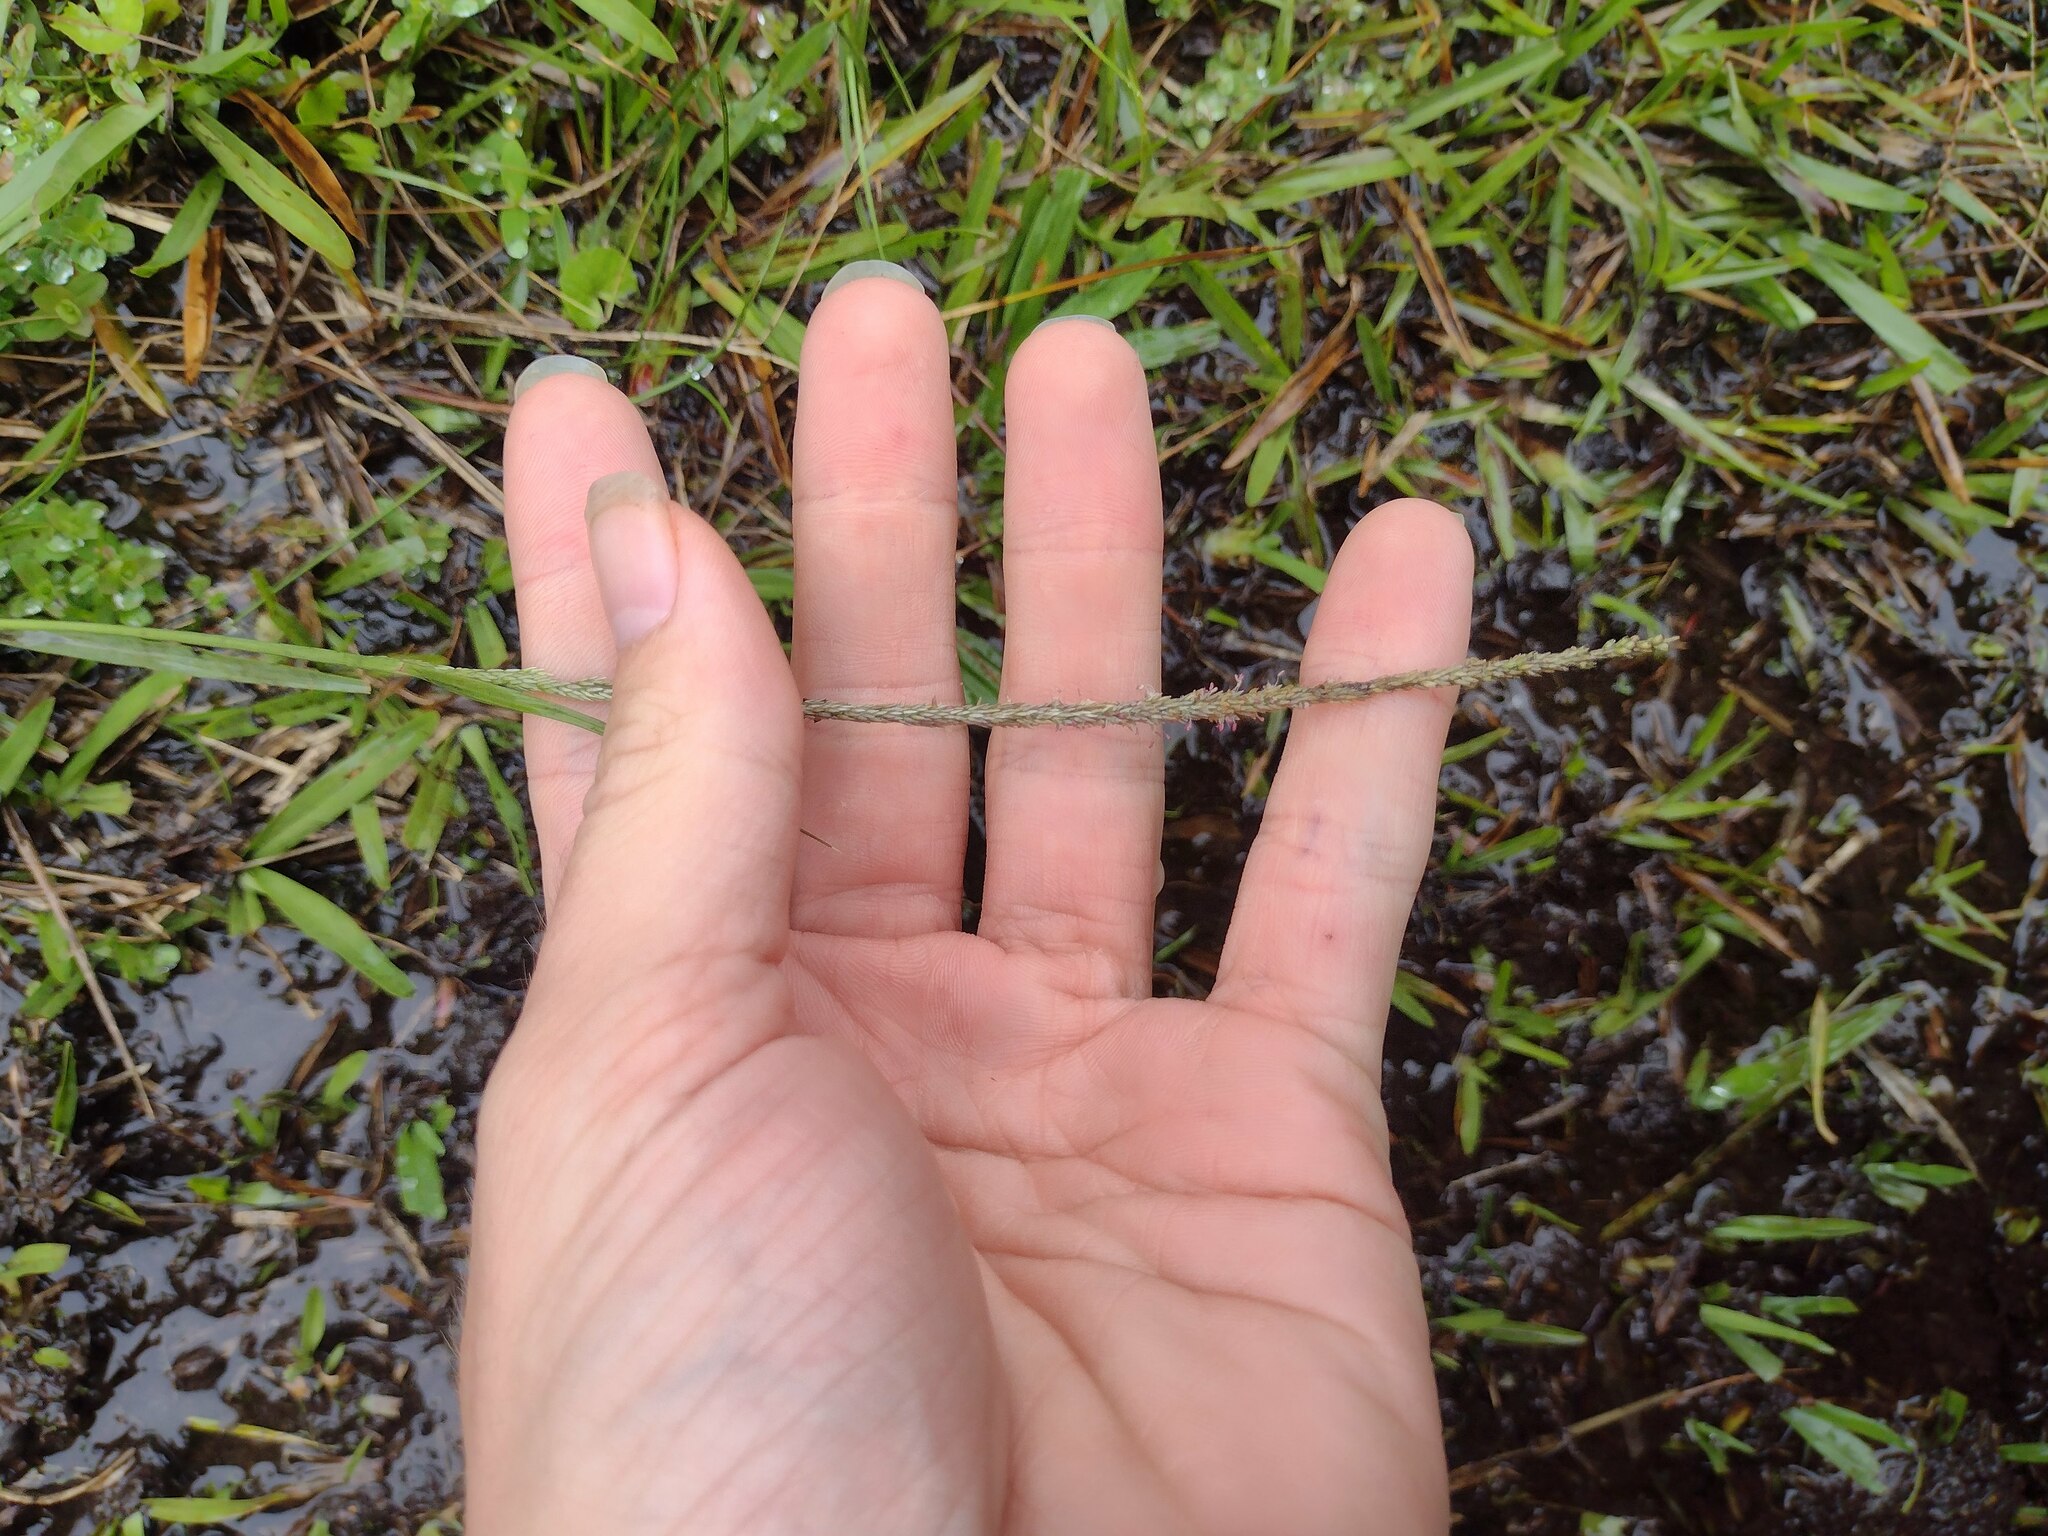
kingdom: Plantae
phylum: Tracheophyta
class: Liliopsida
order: Poales
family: Poaceae
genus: Sporobolus
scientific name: Sporobolus africanus
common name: African dropseed
